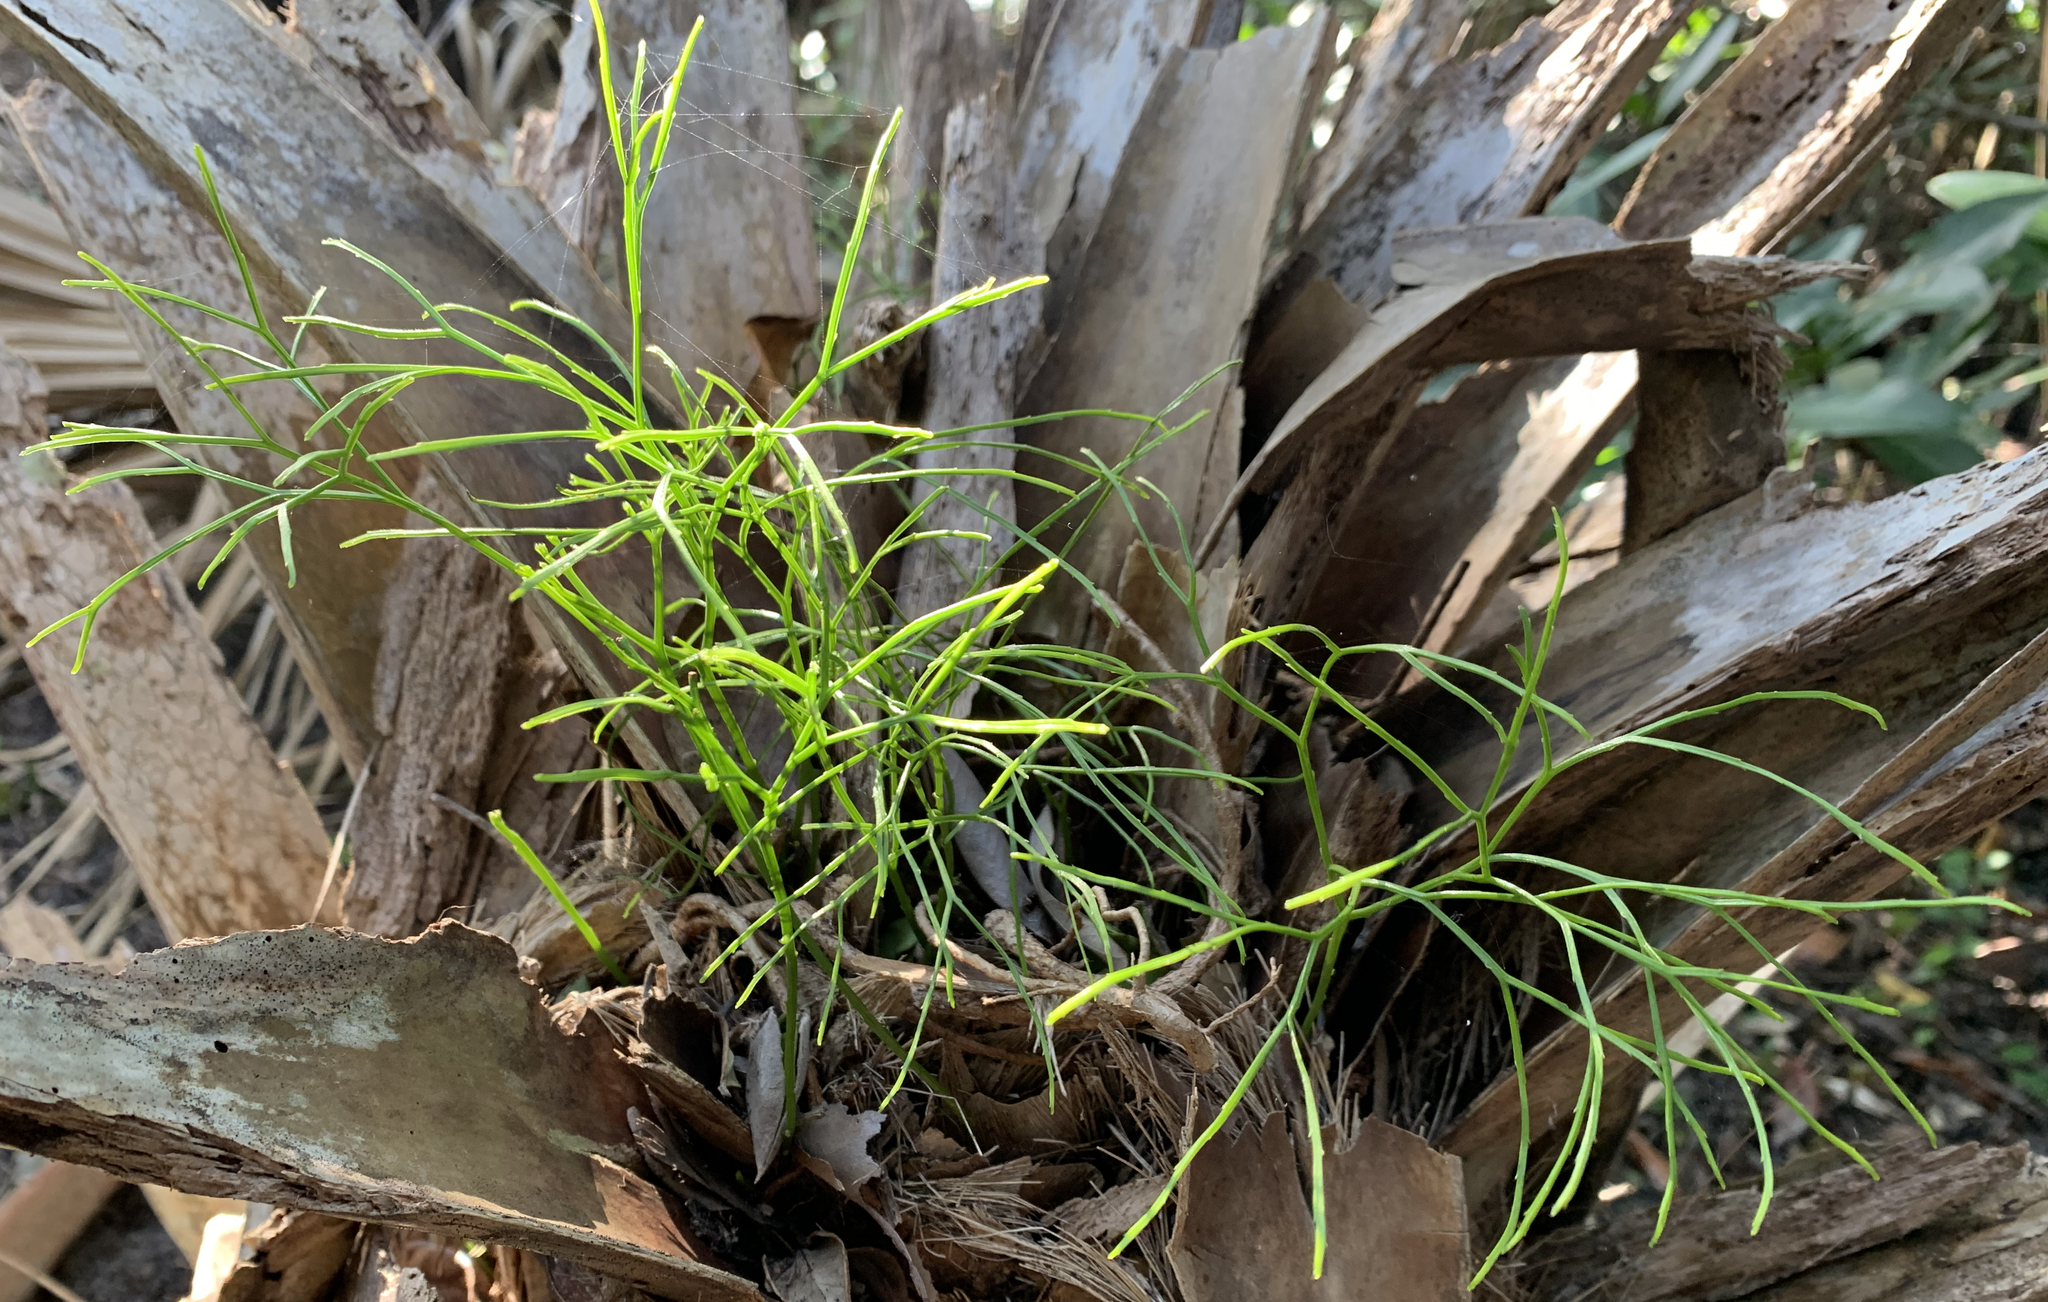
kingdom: Plantae
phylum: Tracheophyta
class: Polypodiopsida
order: Psilotales
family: Psilotaceae
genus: Psilotum
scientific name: Psilotum nudum
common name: Skeleton fork fern
